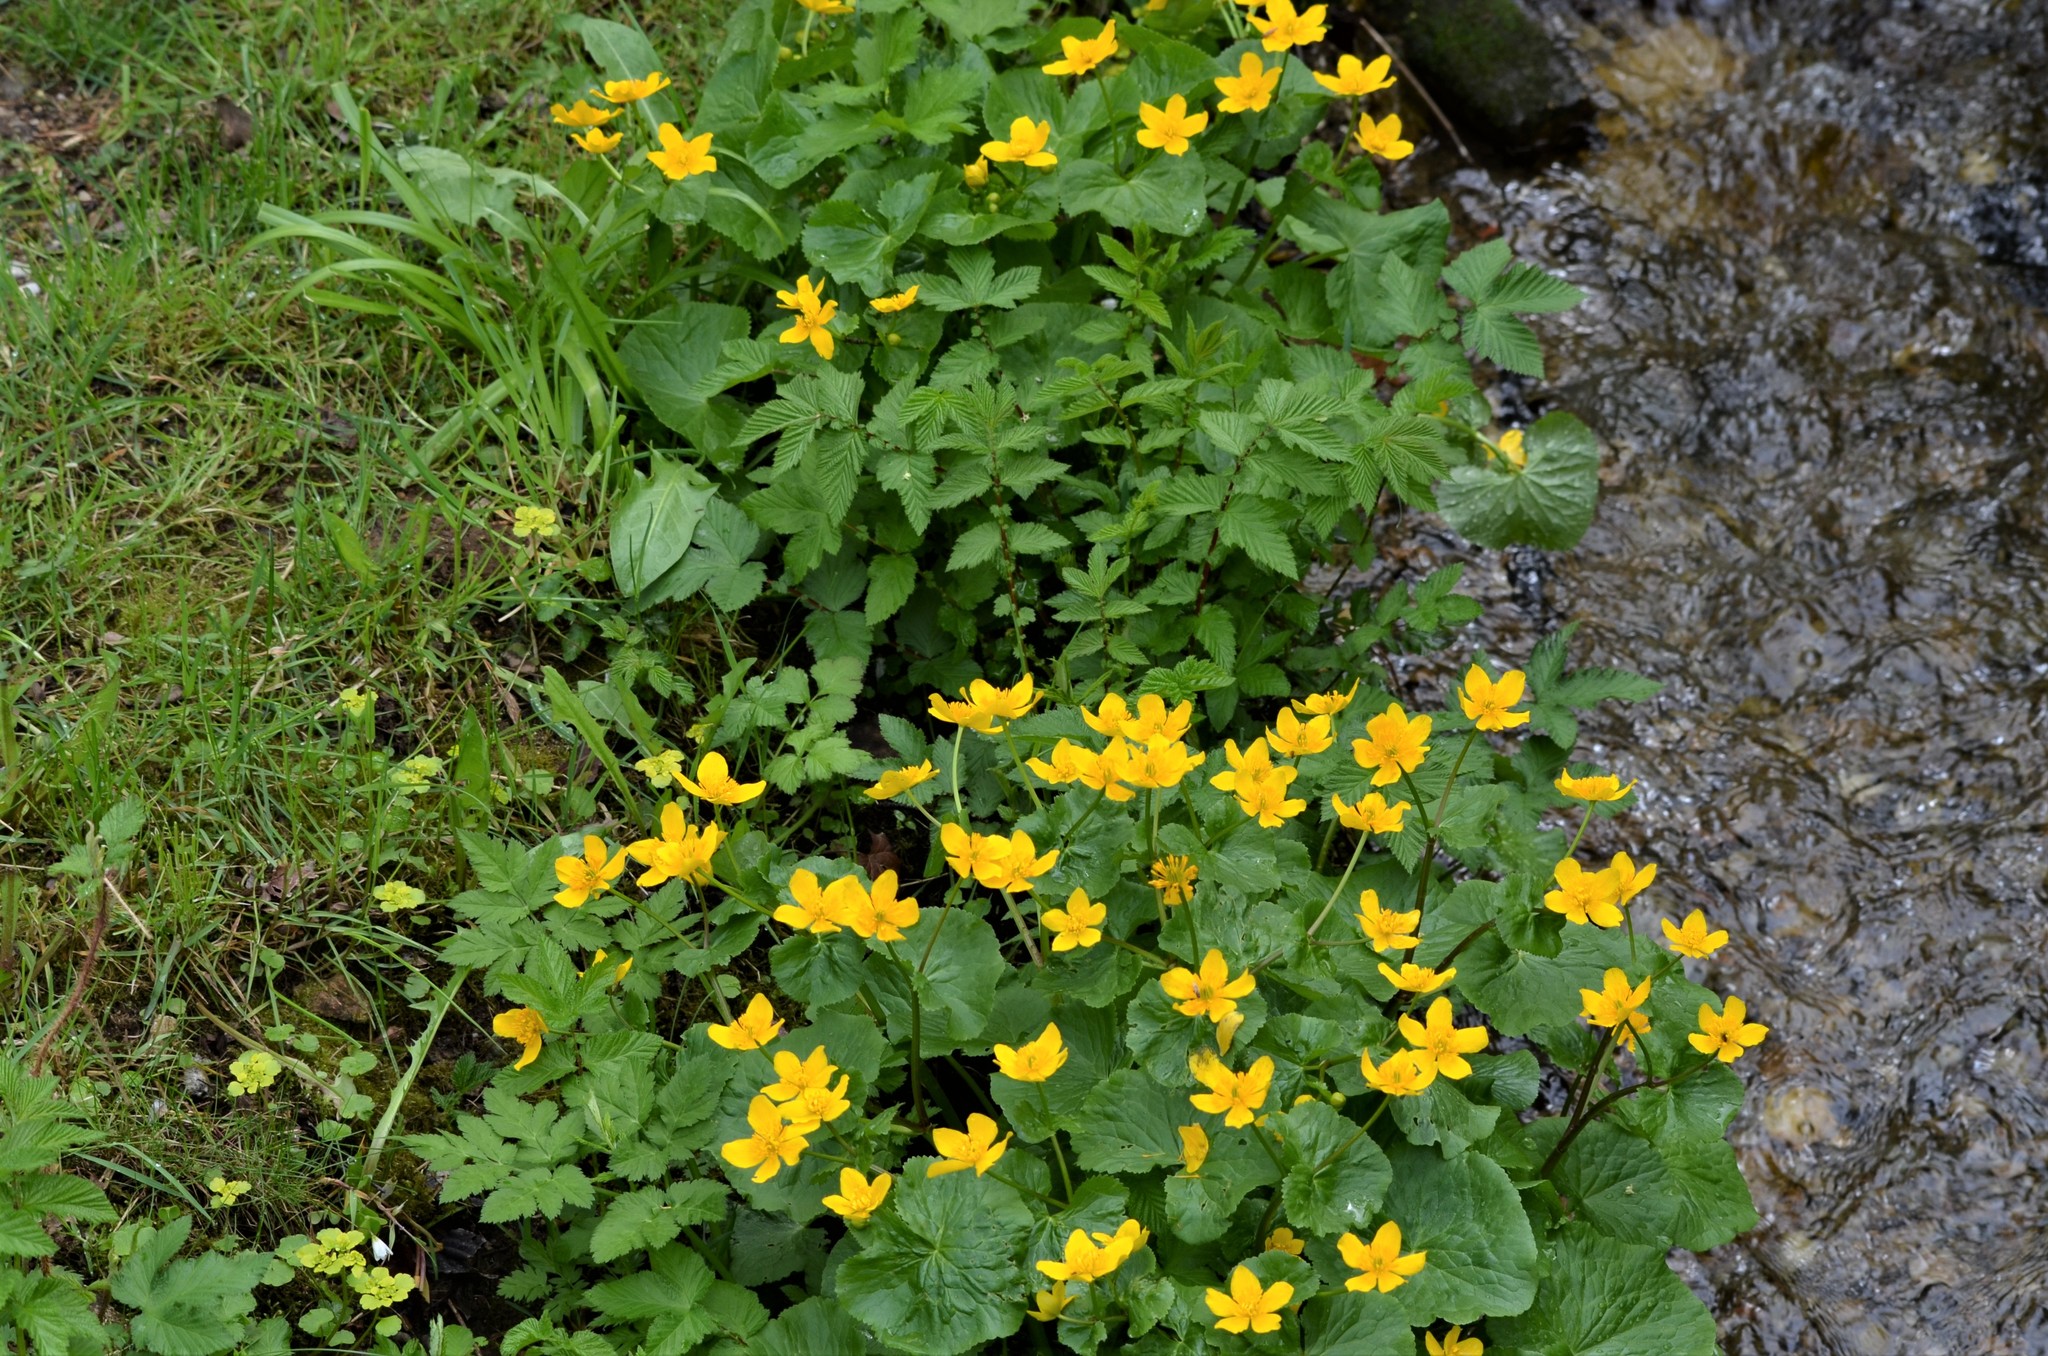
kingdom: Plantae
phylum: Tracheophyta
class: Magnoliopsida
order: Ranunculales
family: Ranunculaceae
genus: Caltha
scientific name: Caltha palustris
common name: Marsh marigold
